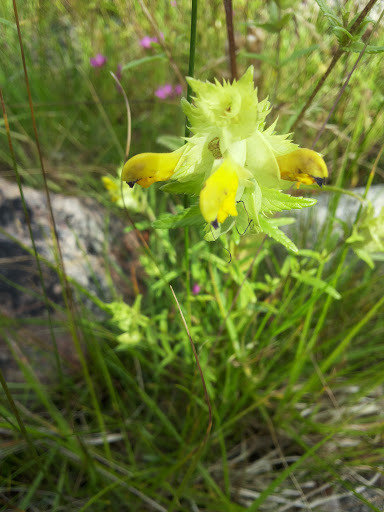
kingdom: Plantae
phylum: Tracheophyta
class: Magnoliopsida
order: Lamiales
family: Orobanchaceae
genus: Rhinanthus
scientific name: Rhinanthus minor
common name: Yellow-rattle
